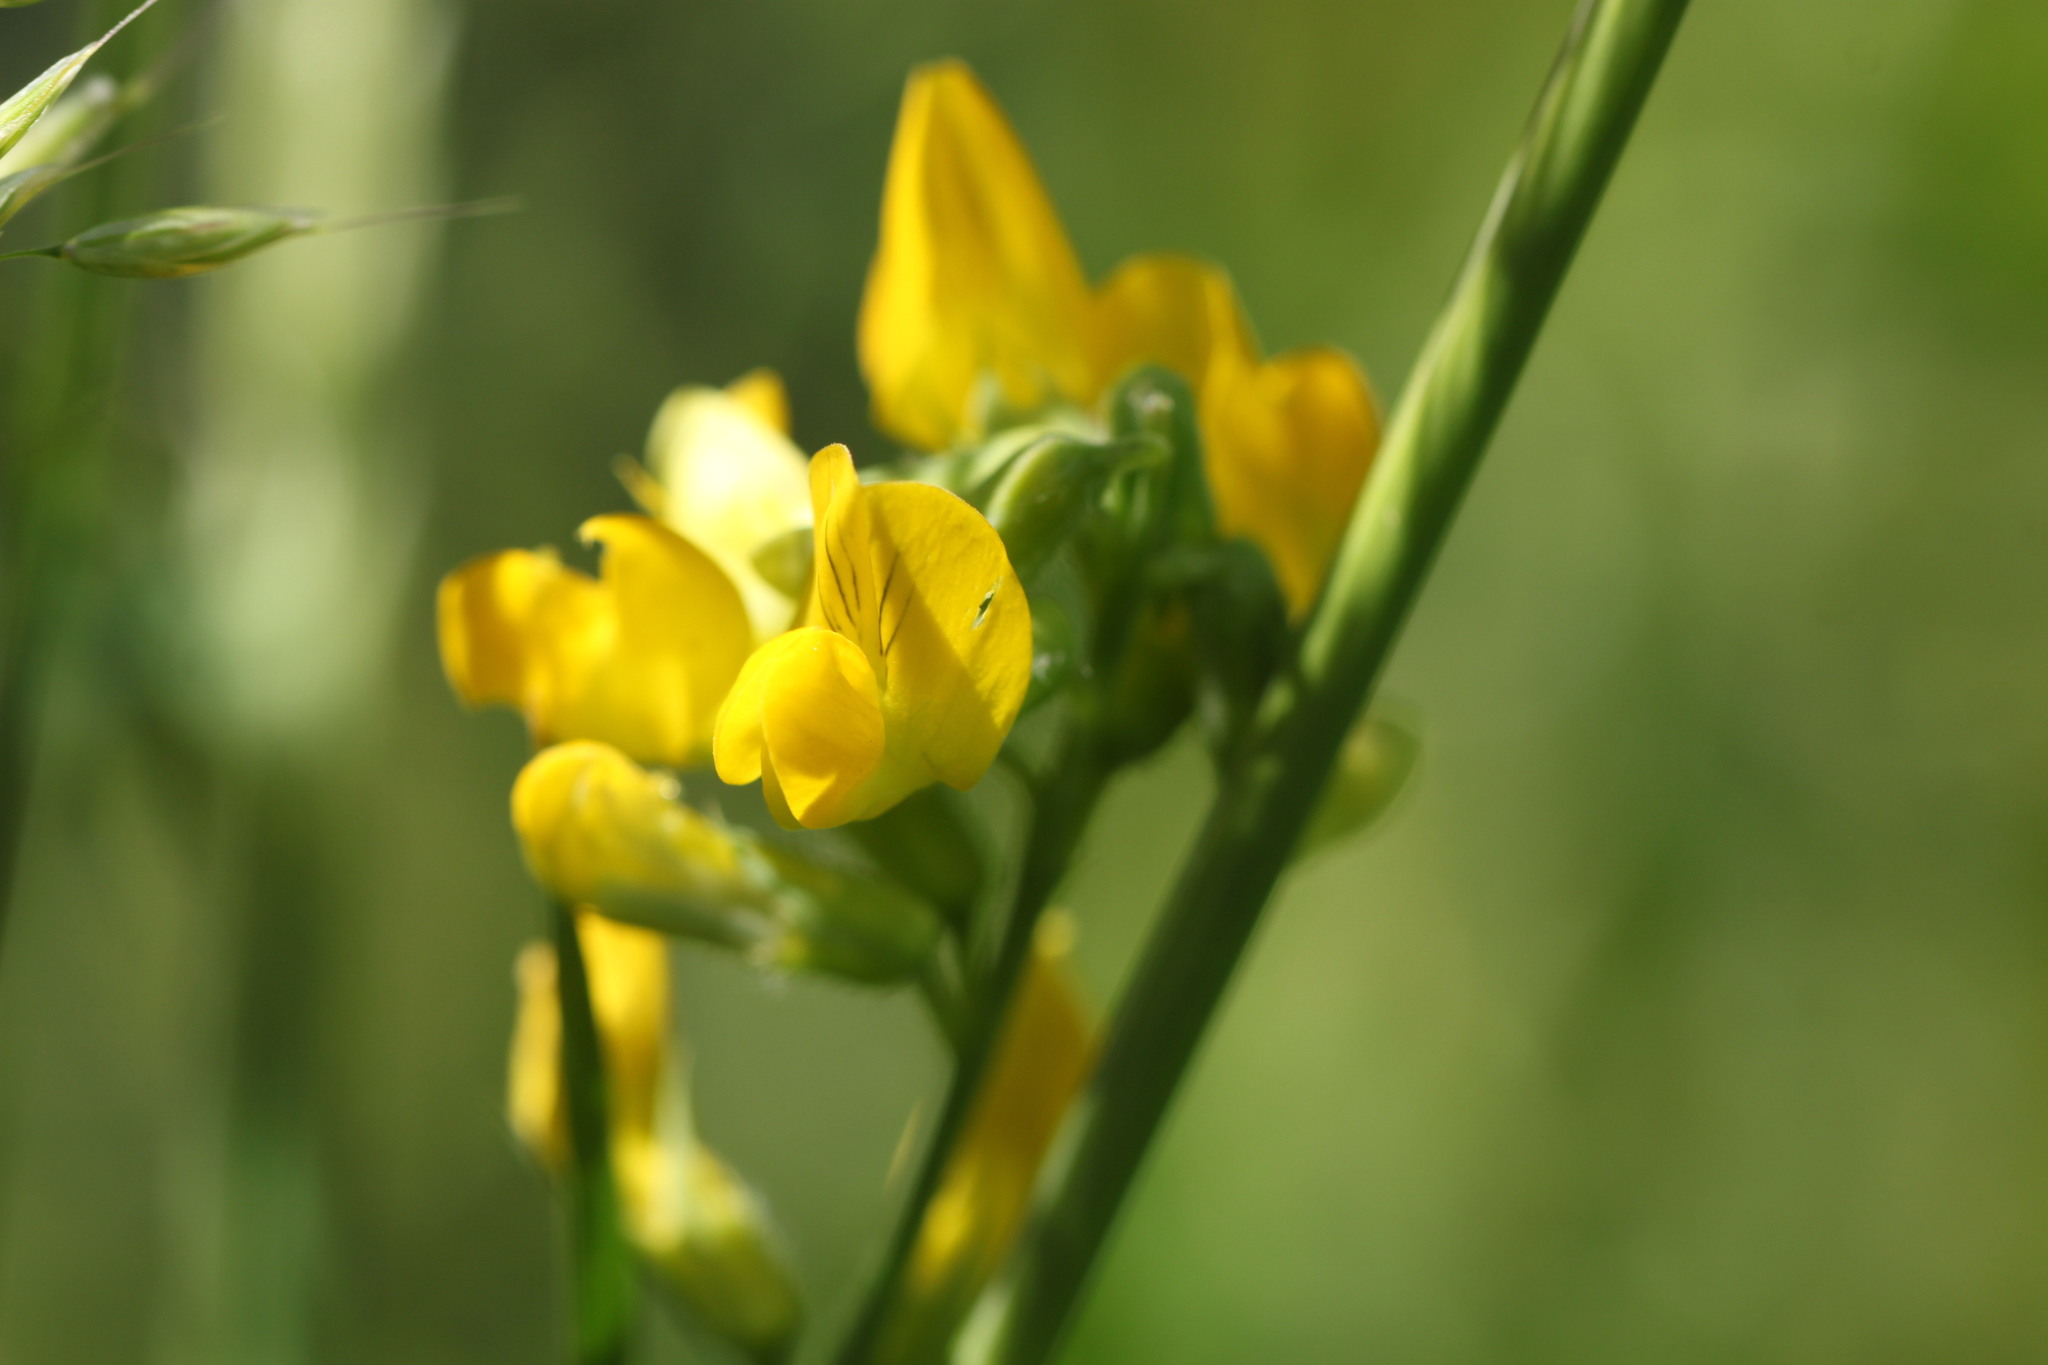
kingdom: Plantae
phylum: Tracheophyta
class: Magnoliopsida
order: Fabales
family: Fabaceae
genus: Lathyrus
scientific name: Lathyrus pratensis
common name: Meadow vetchling
